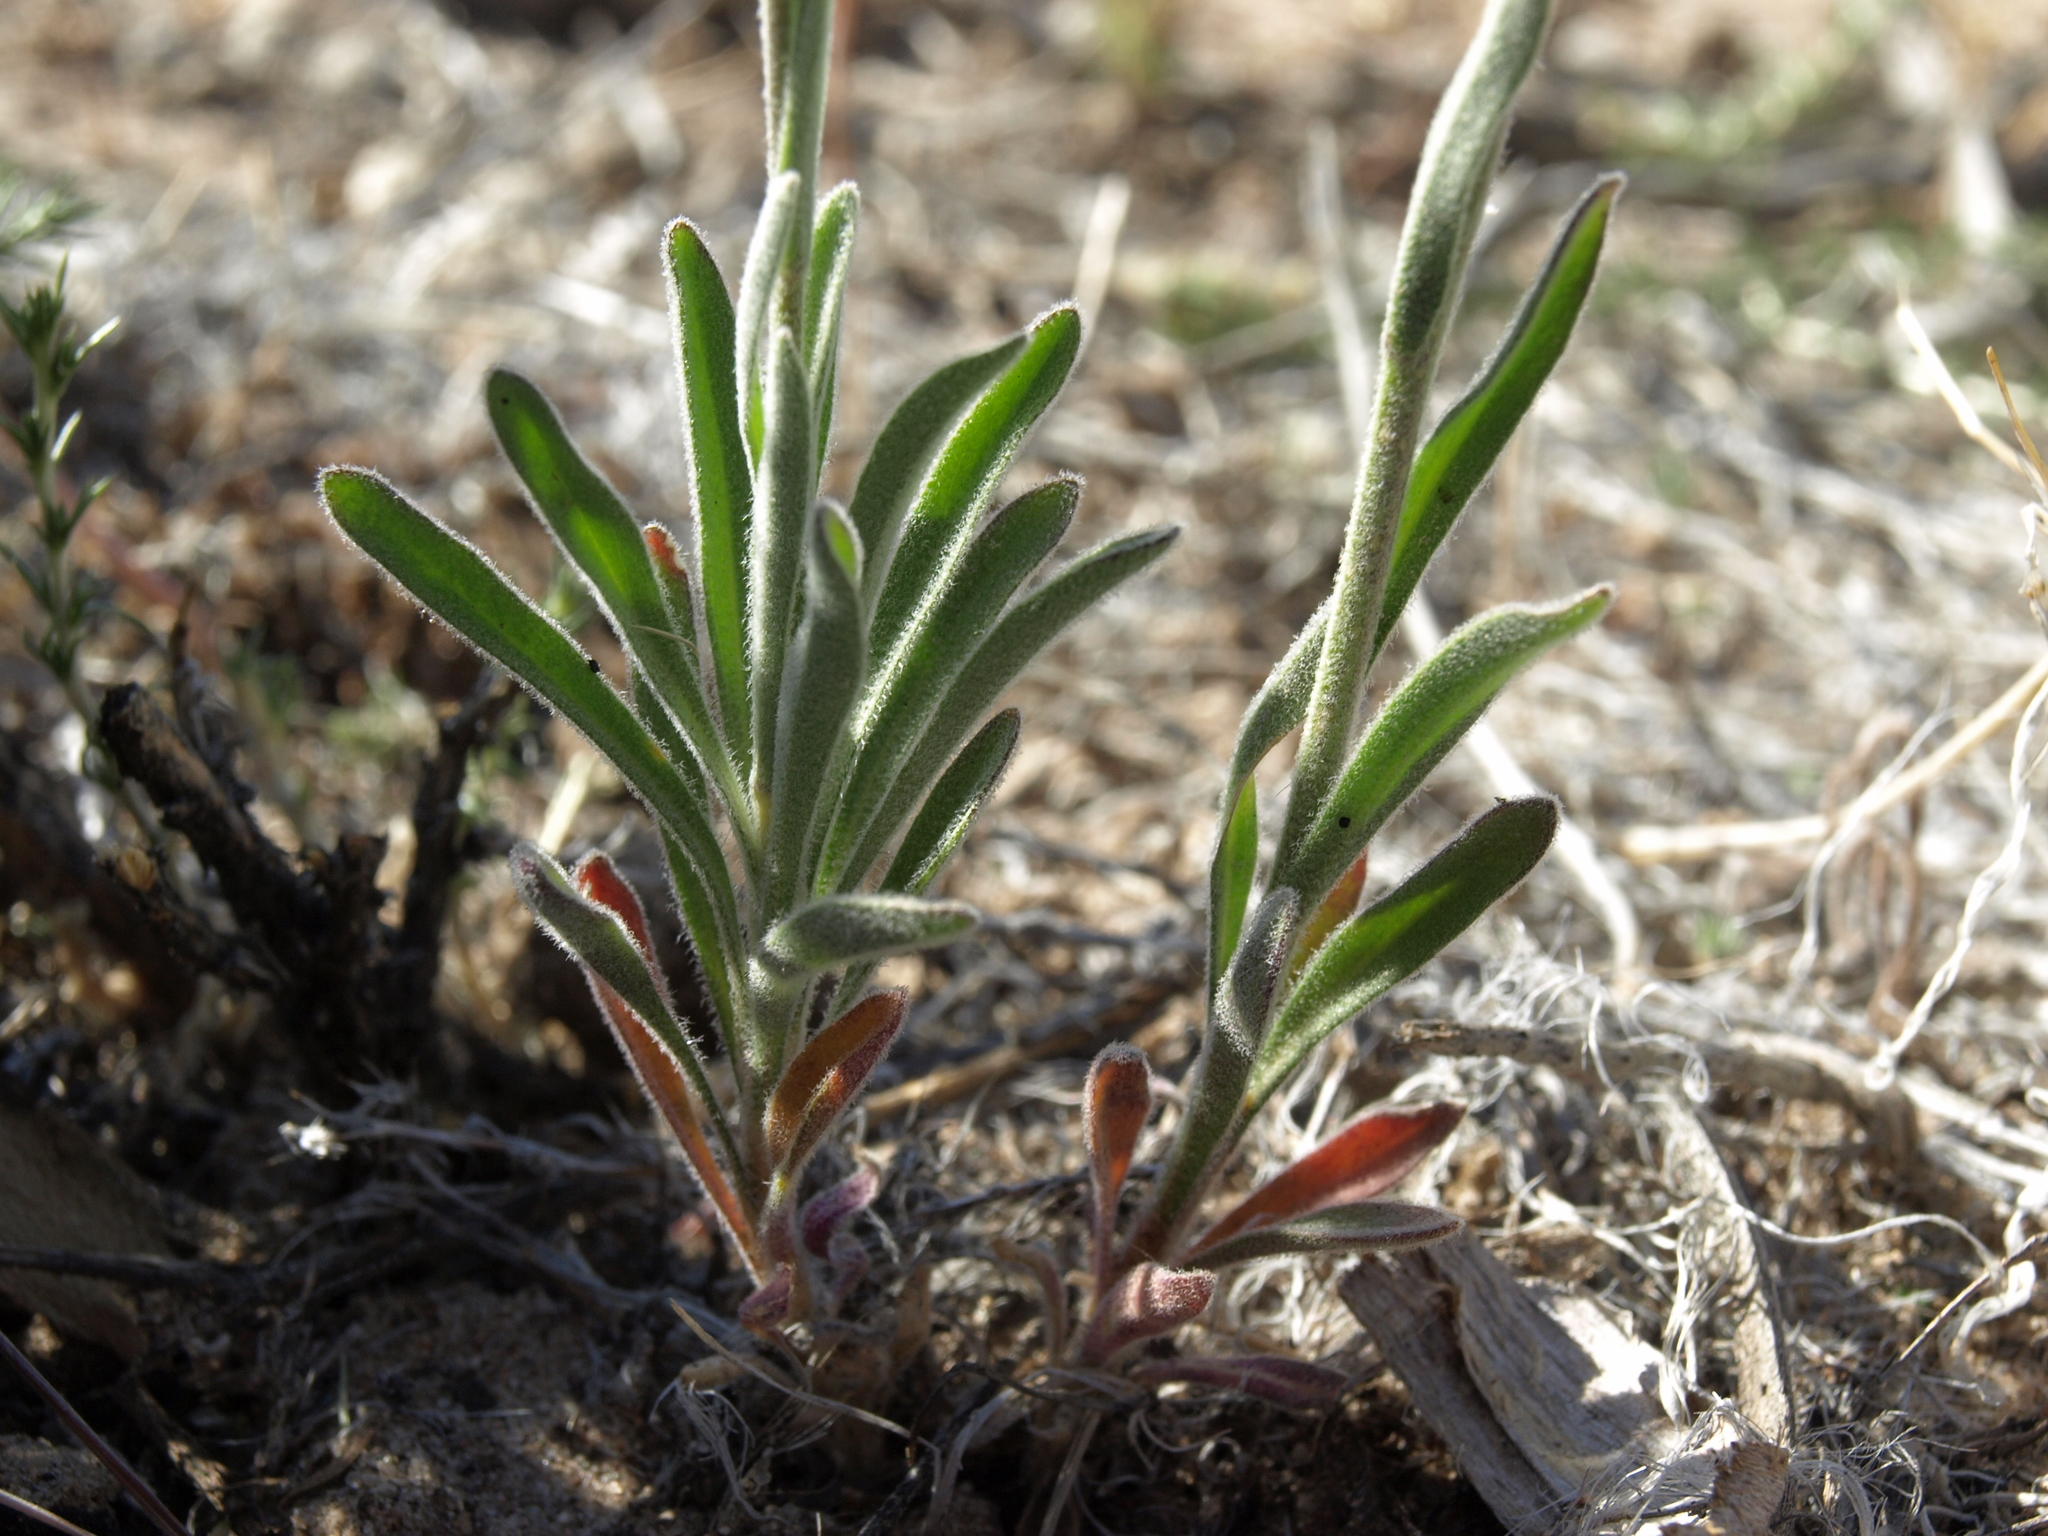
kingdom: Plantae
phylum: Tracheophyta
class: Magnoliopsida
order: Brassicales
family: Brassicaceae
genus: Boechera
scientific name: Boechera pulchra
